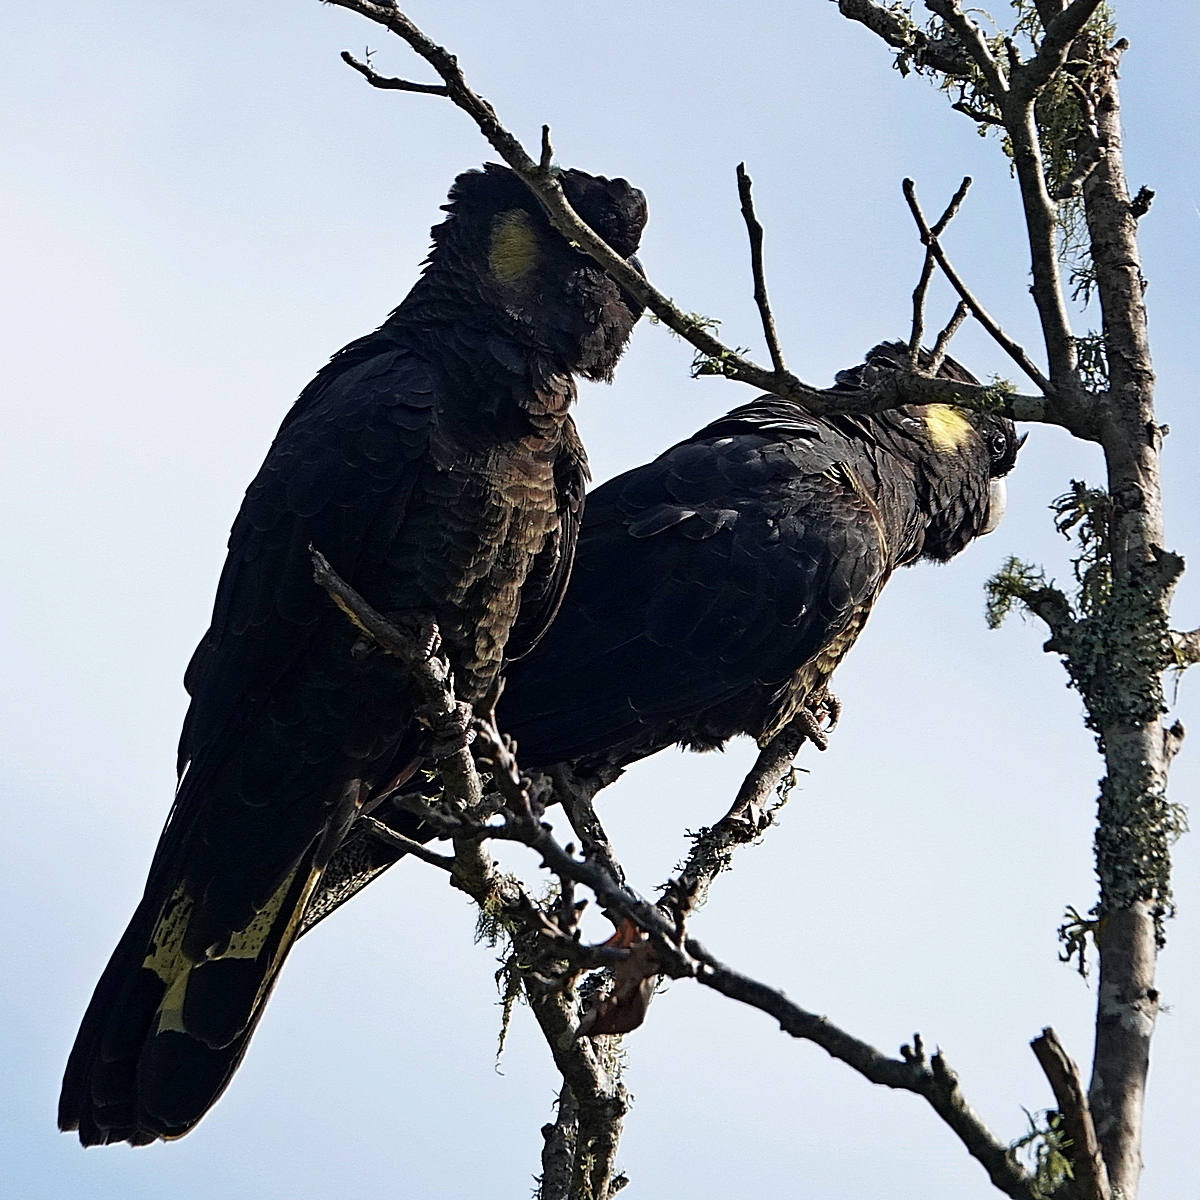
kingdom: Animalia
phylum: Chordata
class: Aves
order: Psittaciformes
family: Cacatuidae
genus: Zanda
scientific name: Zanda funerea
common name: Yellow-tailed black-cockatoo
